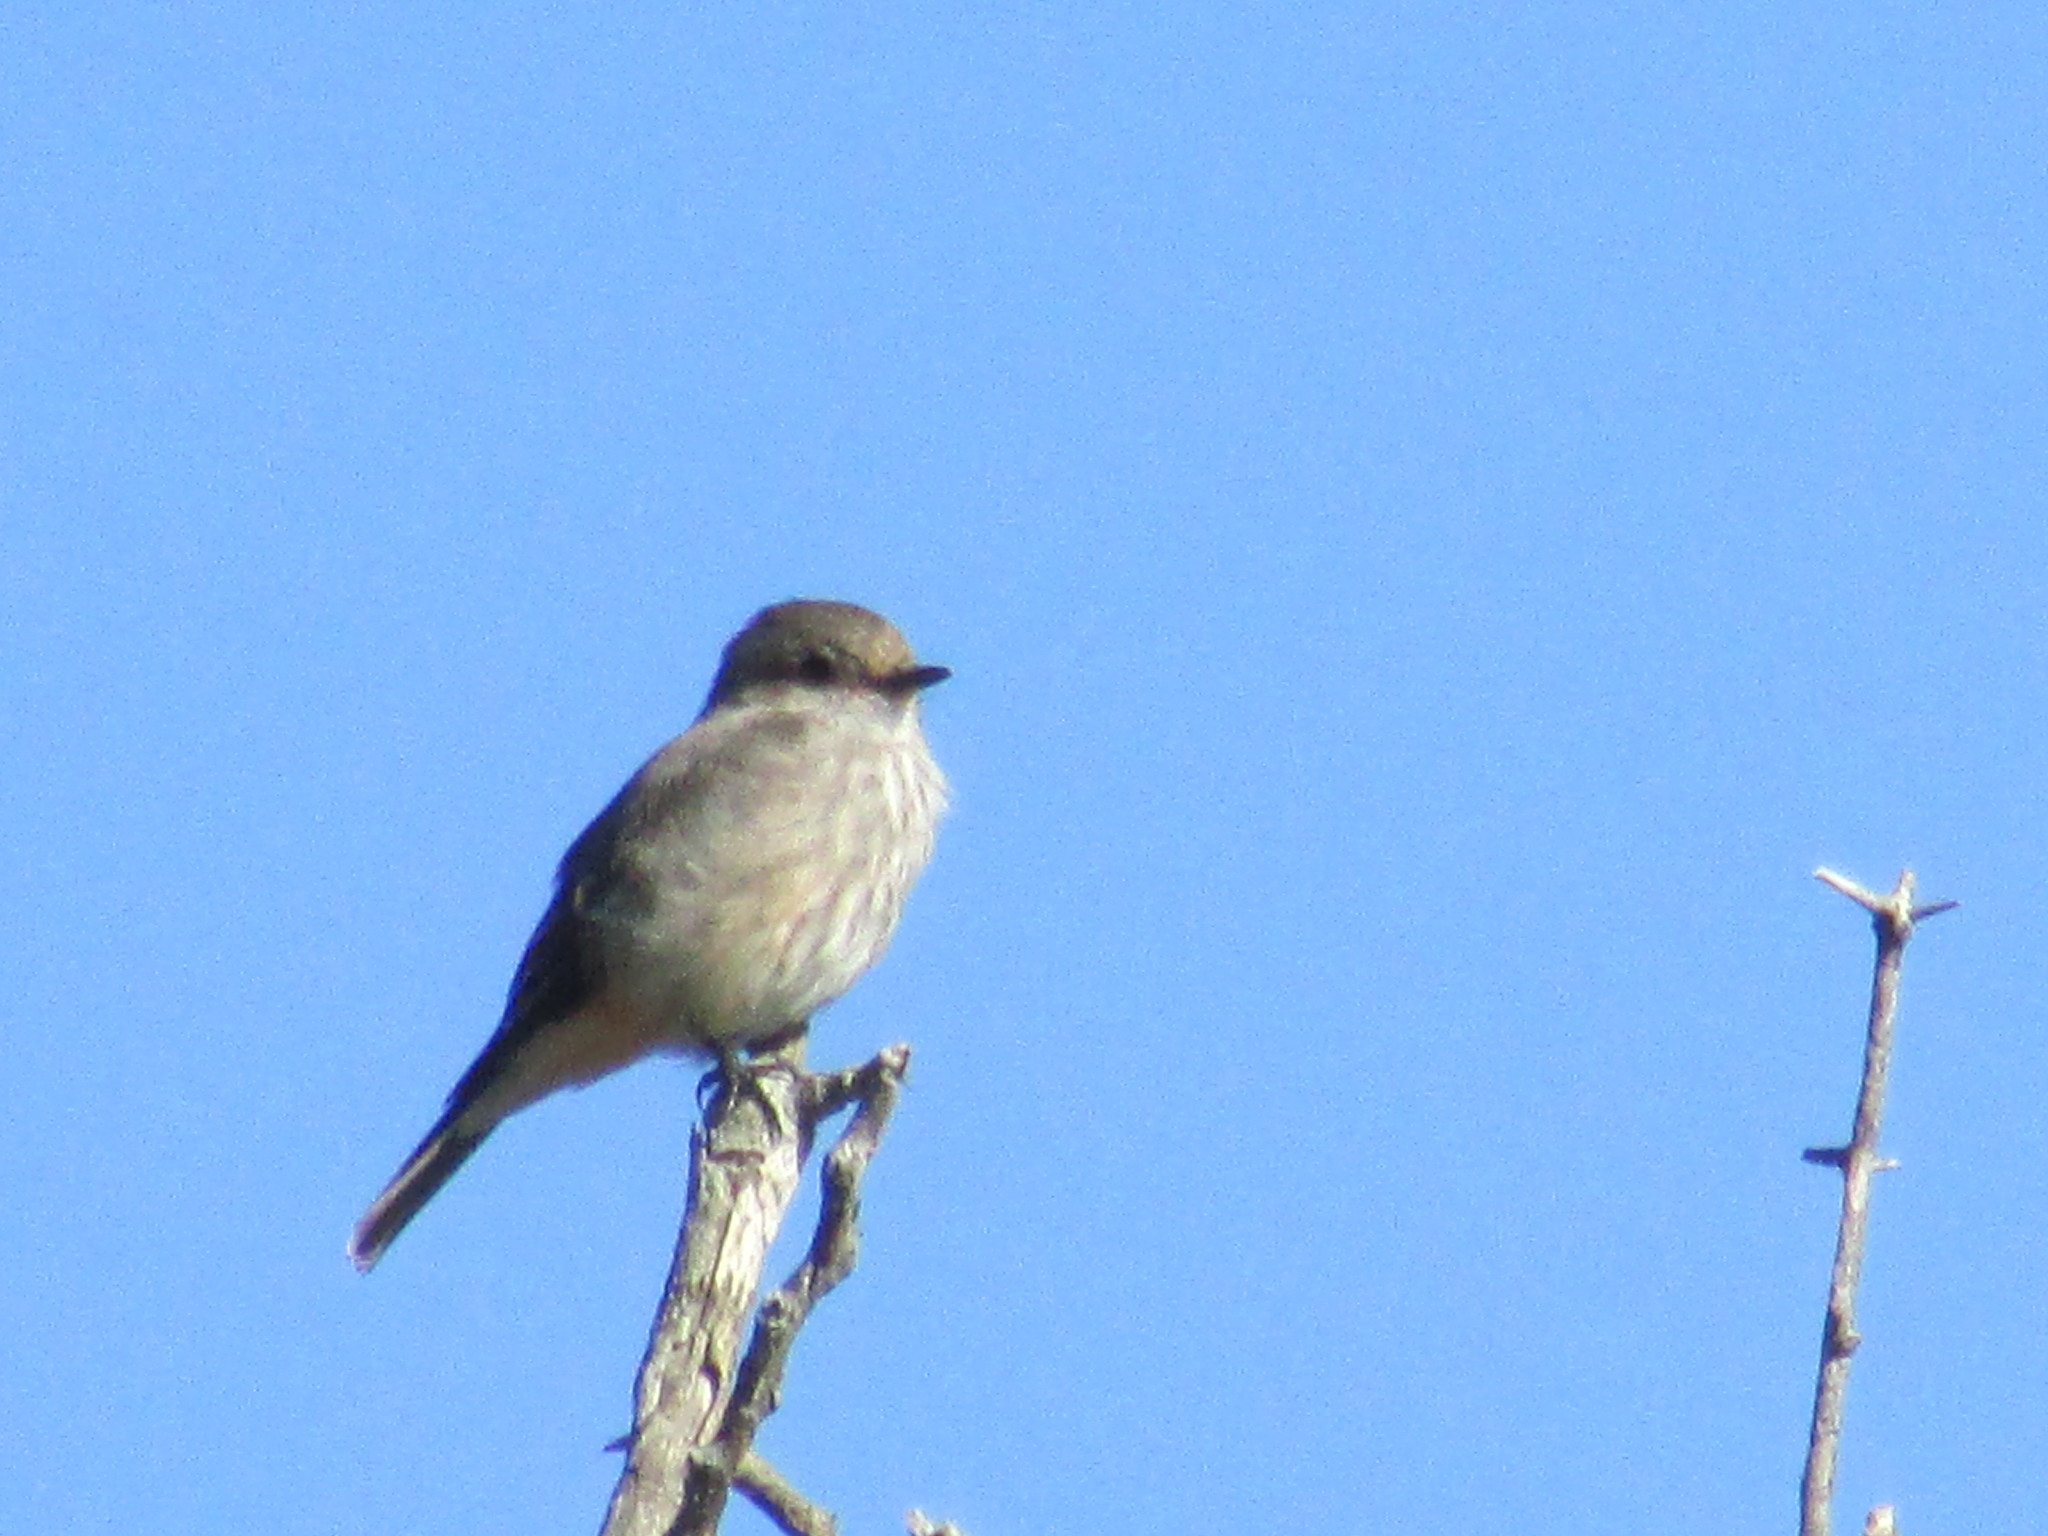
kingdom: Animalia
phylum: Chordata
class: Aves
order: Passeriformes
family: Tyrannidae
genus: Pyrocephalus
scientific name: Pyrocephalus rubinus
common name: Vermilion flycatcher
